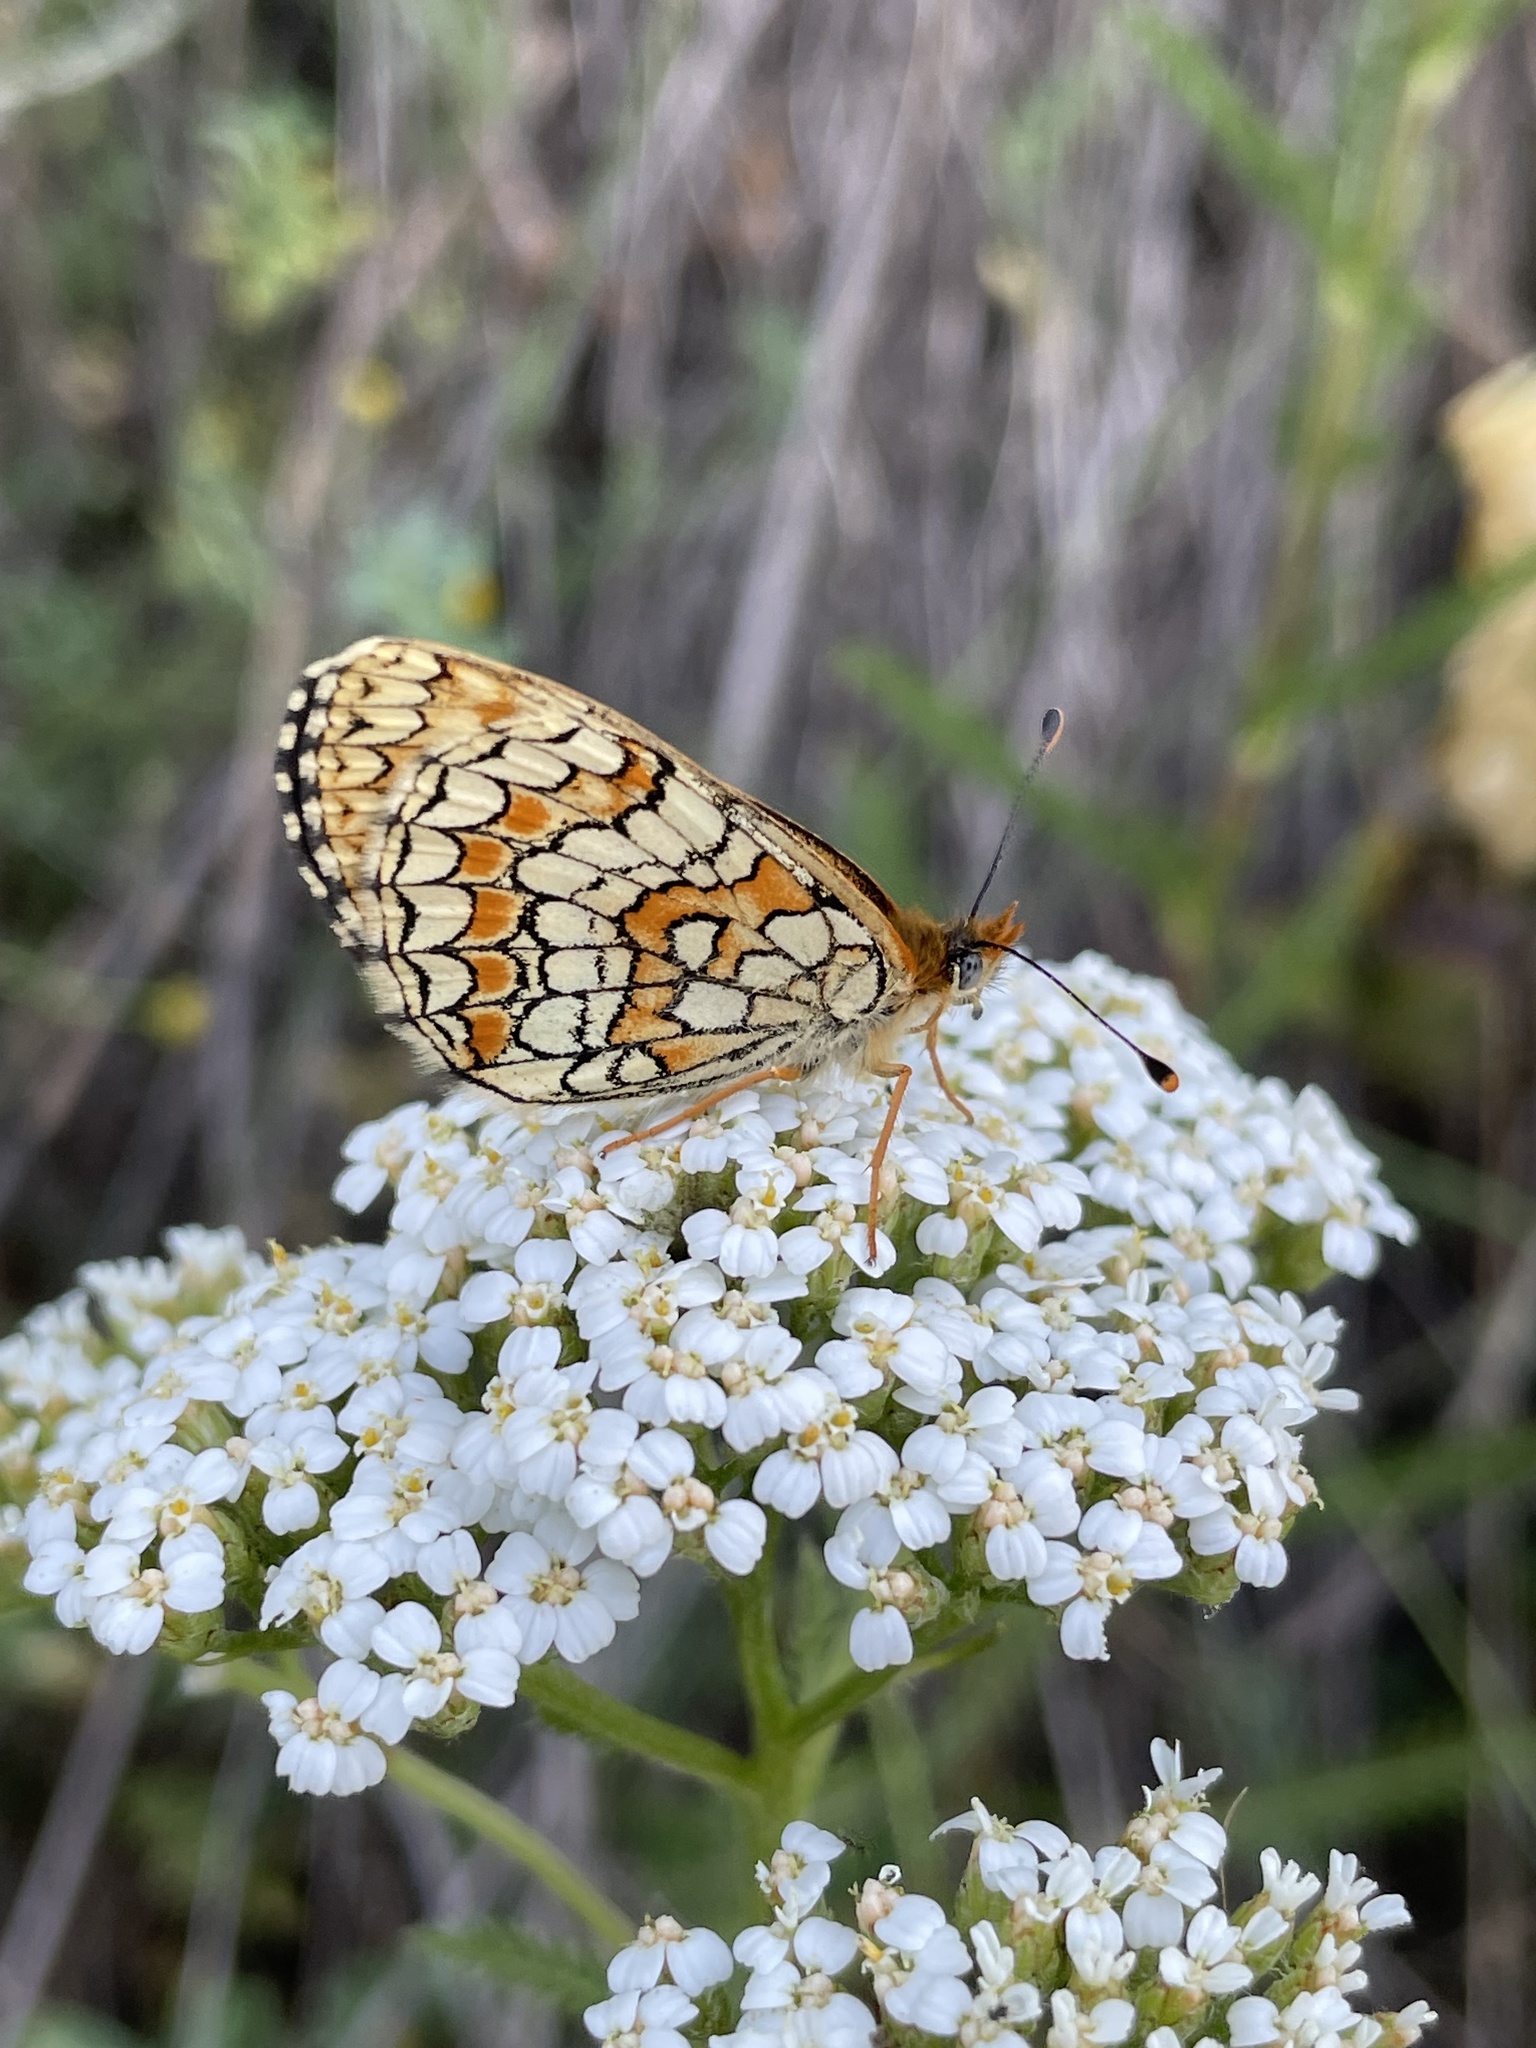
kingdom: Animalia
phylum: Arthropoda
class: Insecta
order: Lepidoptera
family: Nymphalidae
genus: Melitaea
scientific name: Melitaea phoebe
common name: Knapweed fritillary
